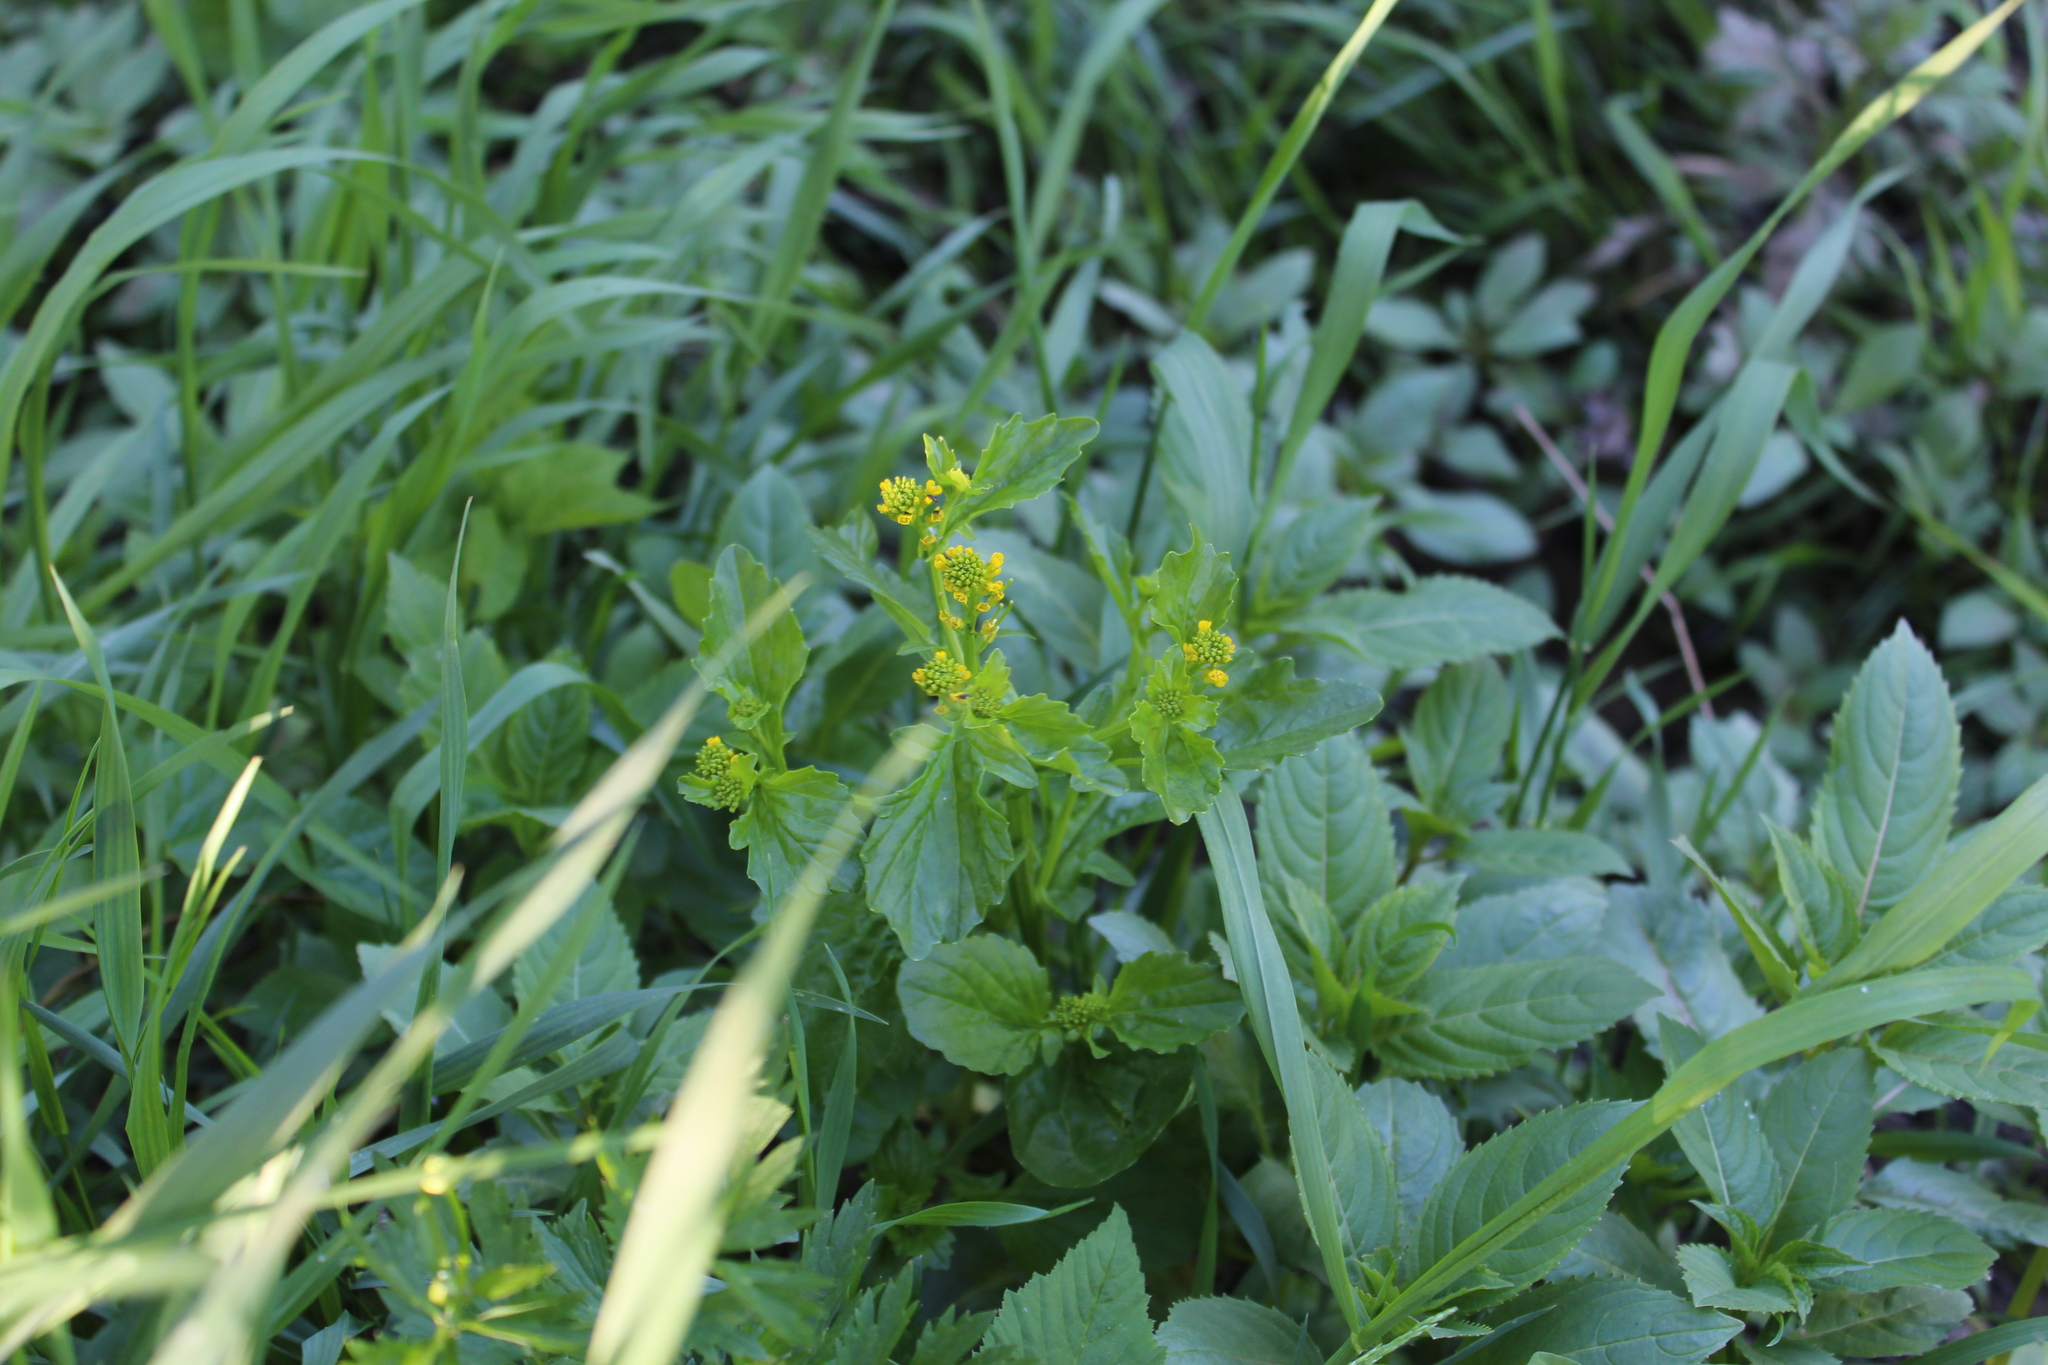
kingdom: Plantae
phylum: Tracheophyta
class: Magnoliopsida
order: Brassicales
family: Brassicaceae
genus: Barbarea
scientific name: Barbarea stricta
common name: Small-flowered winter-cress
